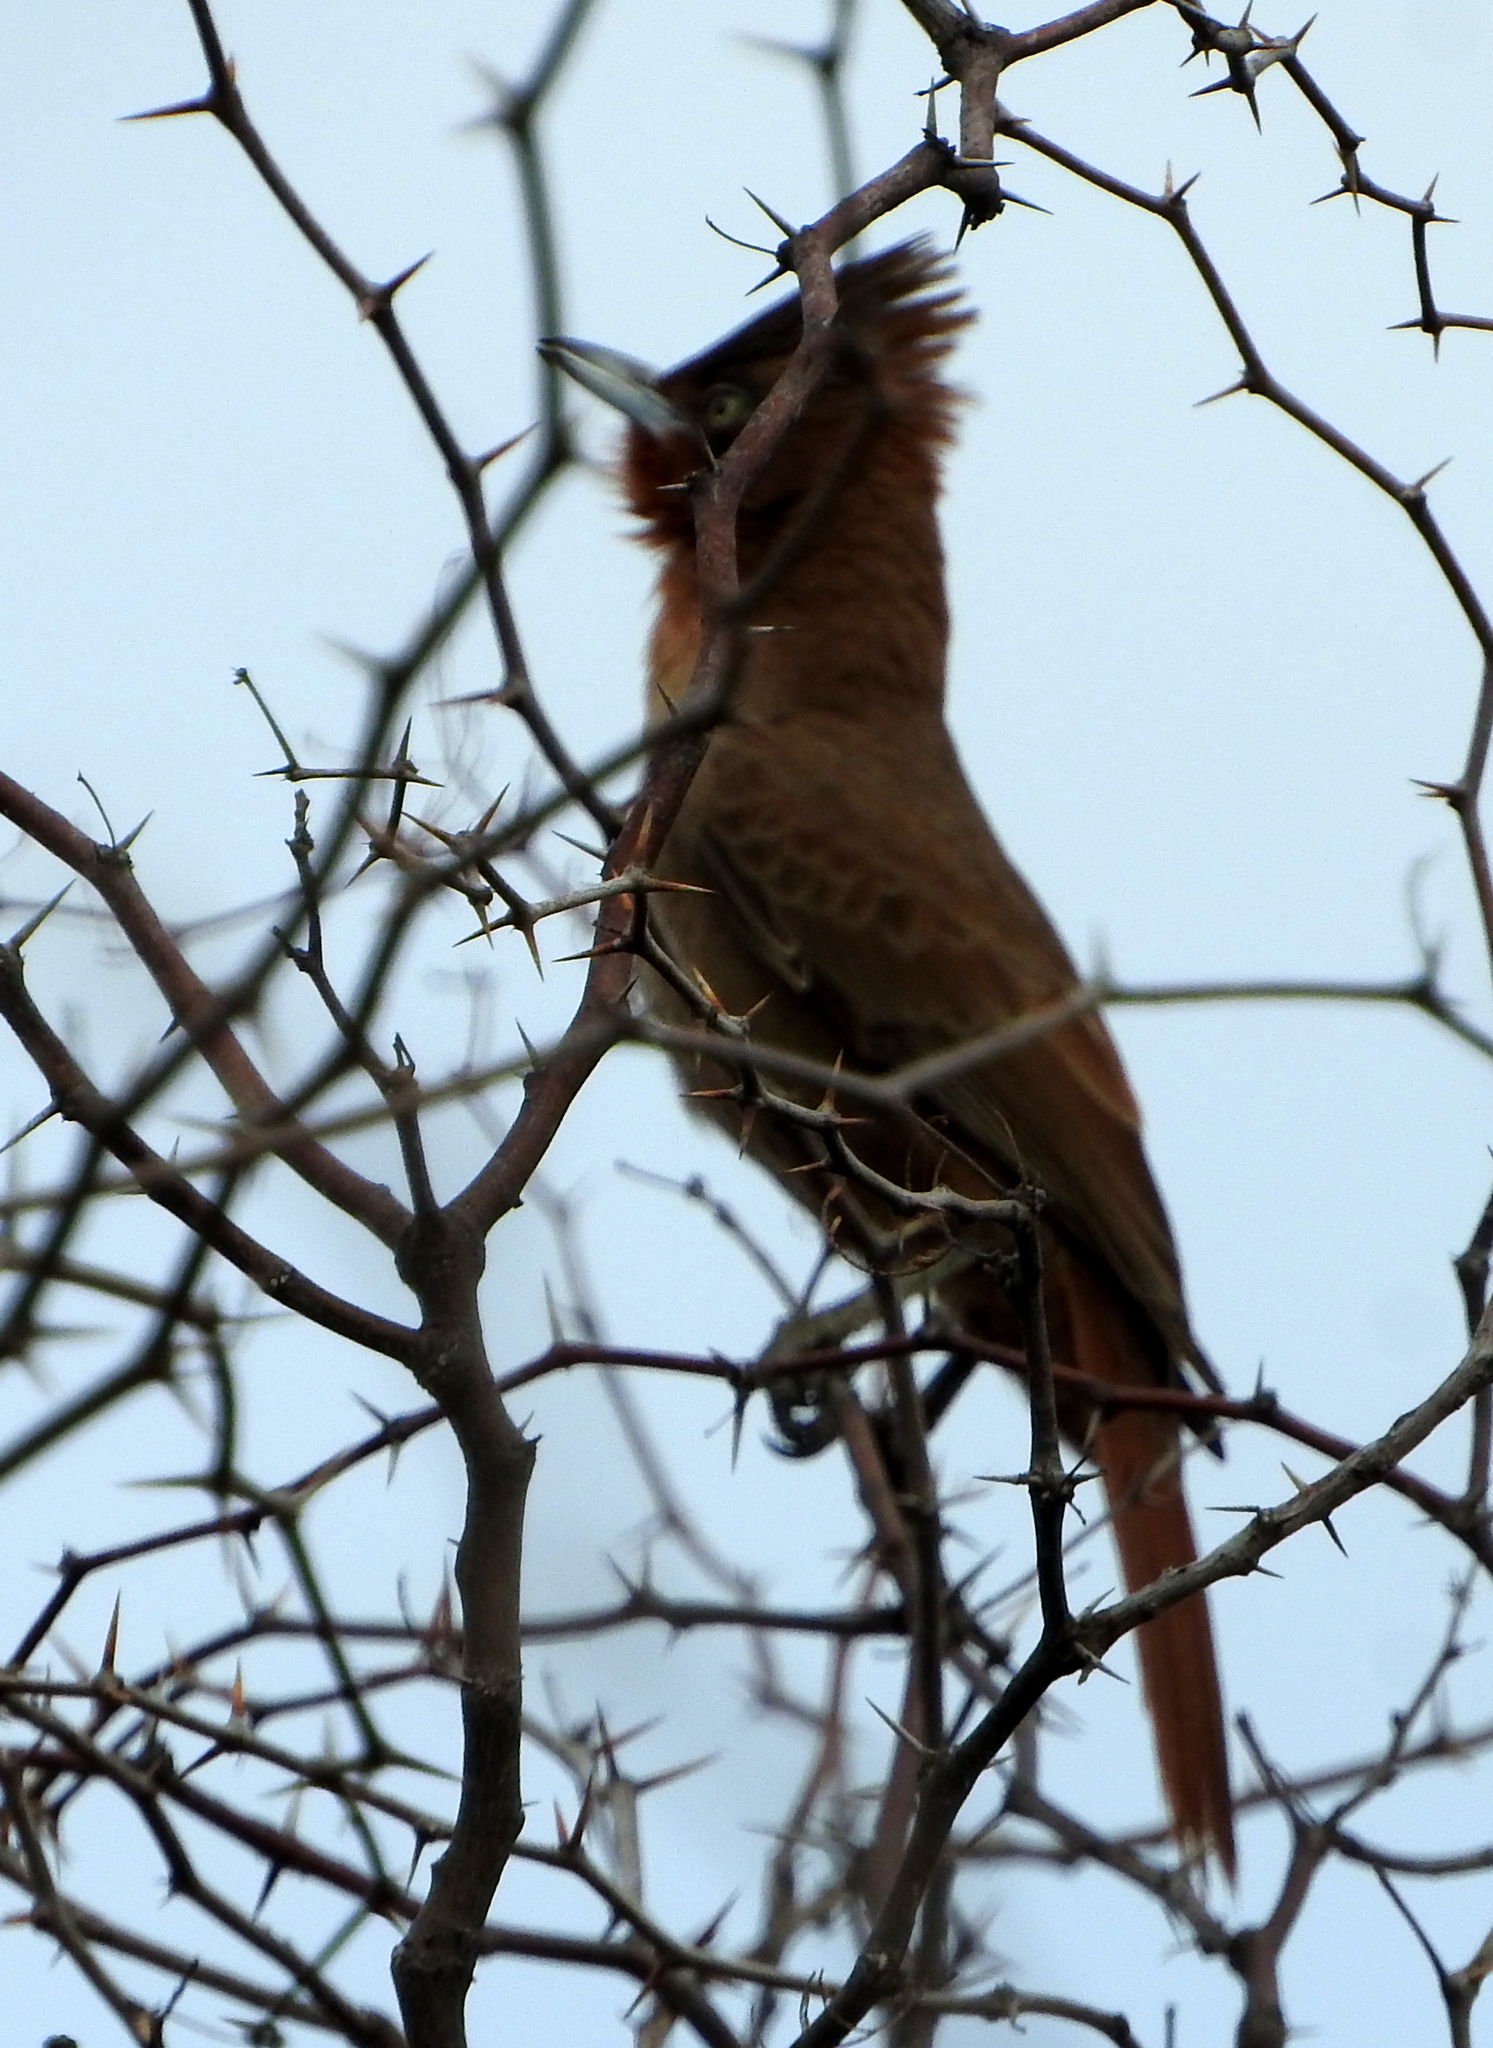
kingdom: Animalia
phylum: Chordata
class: Aves
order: Passeriformes
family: Furnariidae
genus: Pseudoseisura
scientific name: Pseudoseisura lophotes
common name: Brown cacholote
